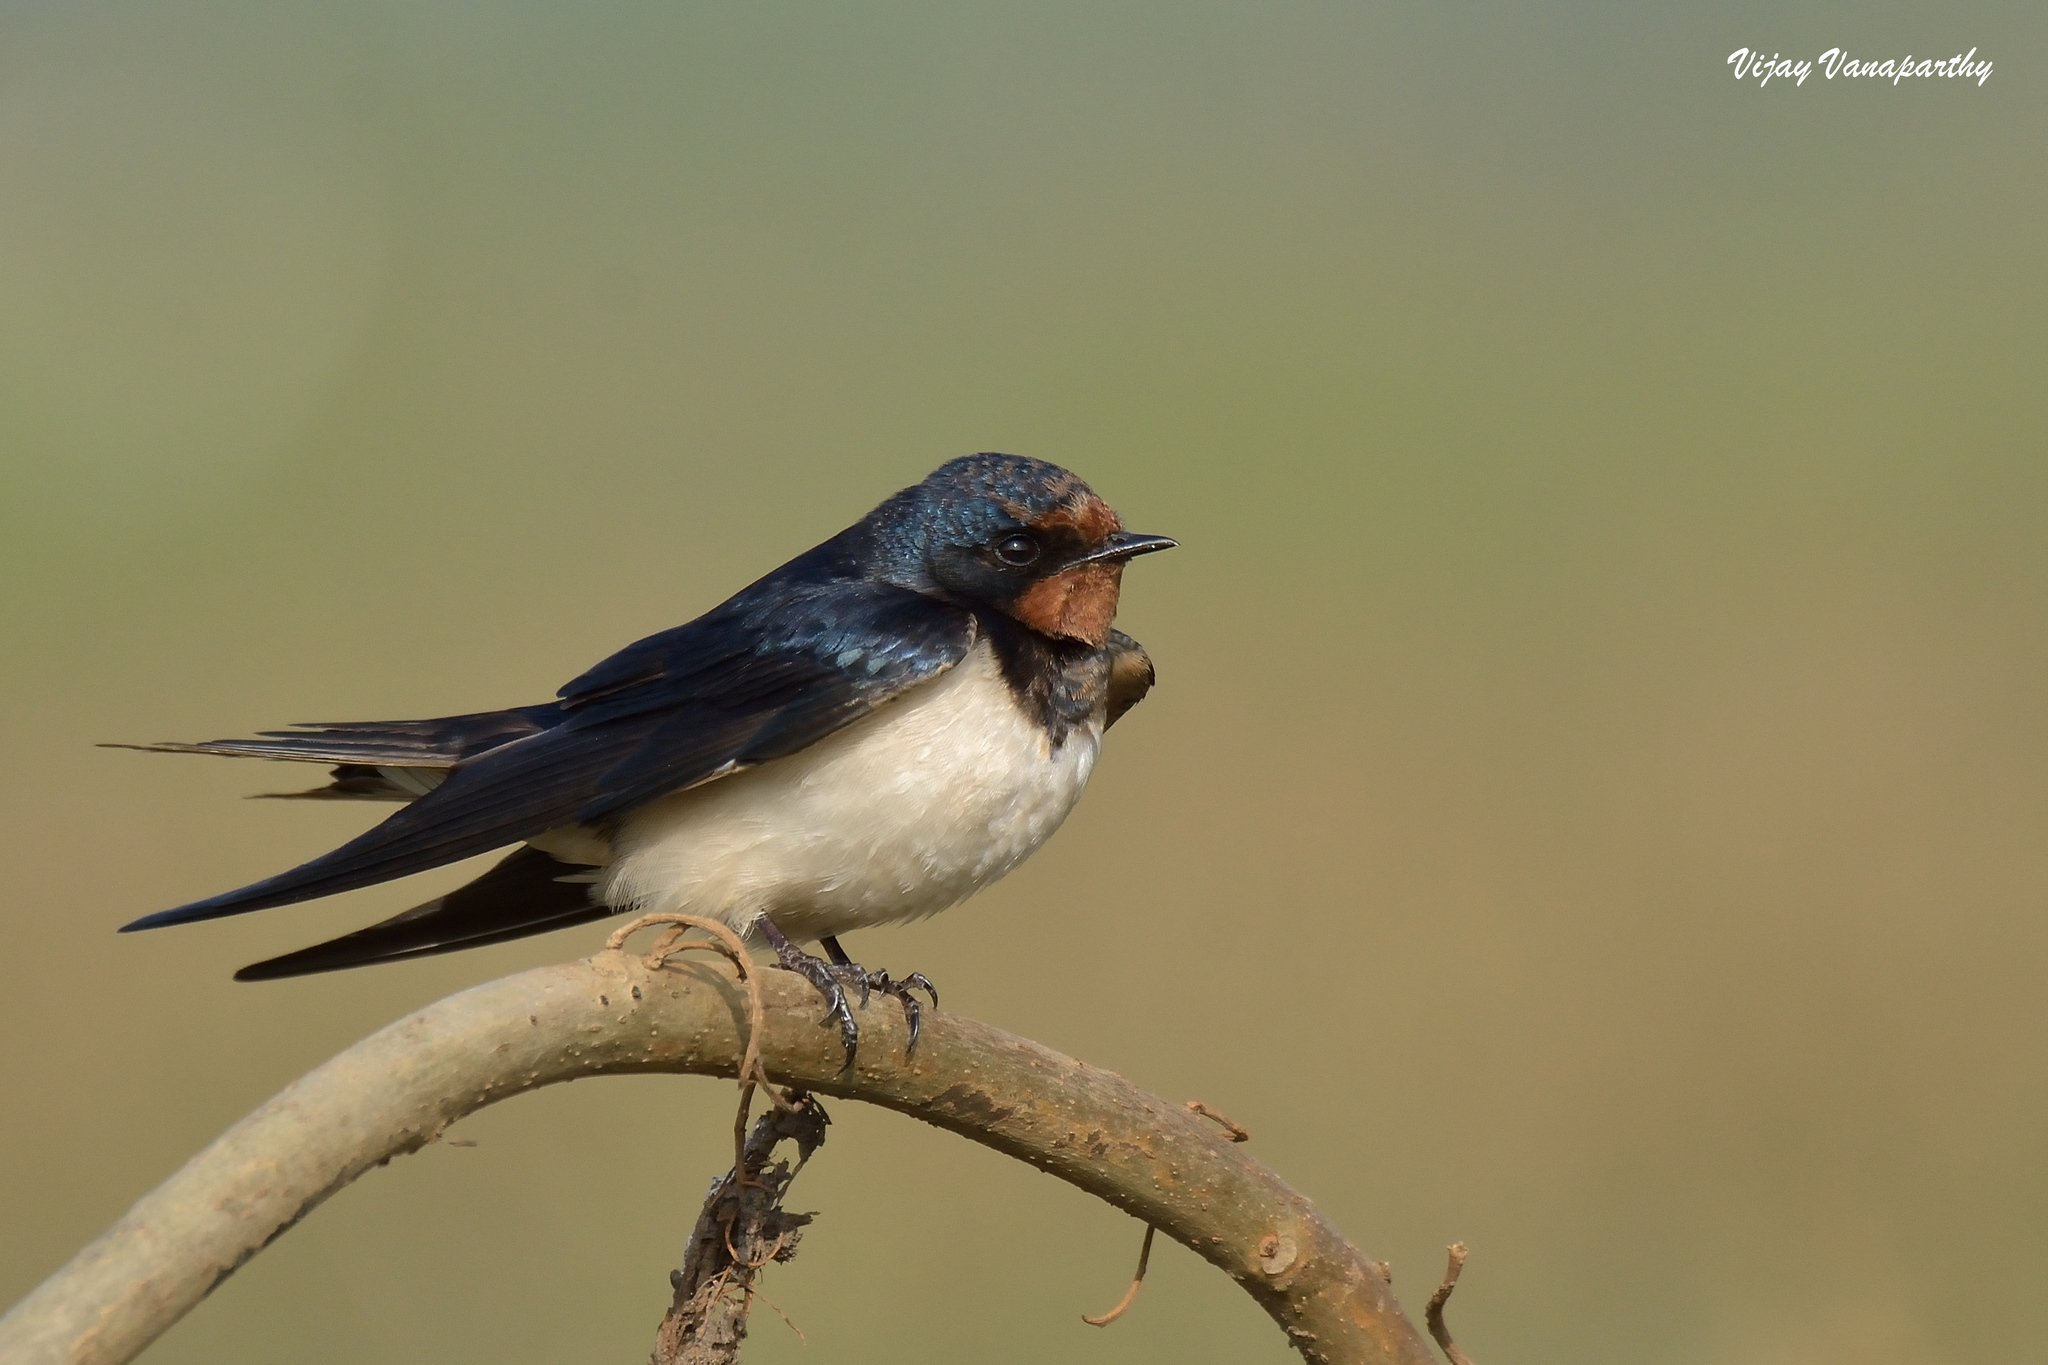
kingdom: Animalia
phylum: Chordata
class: Aves
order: Passeriformes
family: Hirundinidae
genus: Hirundo
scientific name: Hirundo rustica
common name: Barn swallow
